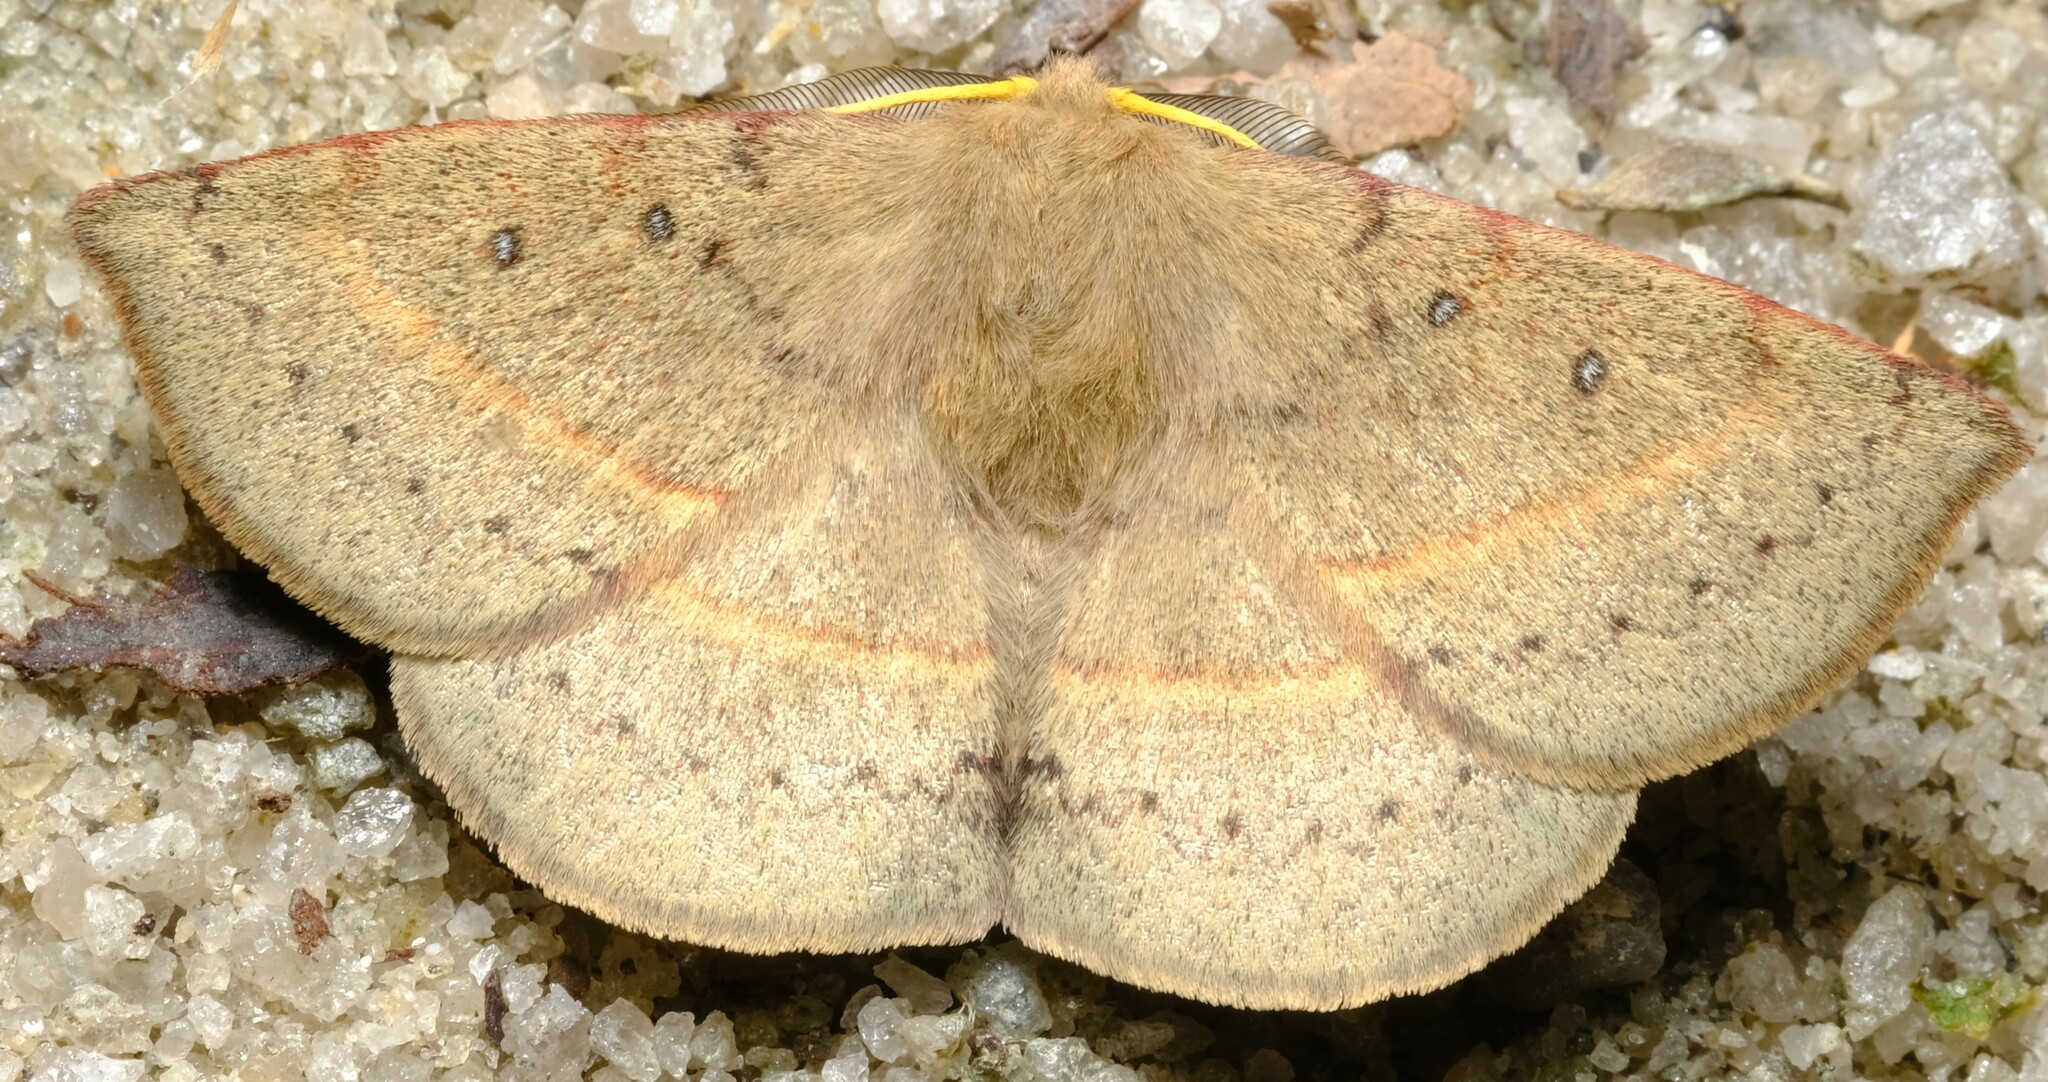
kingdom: Animalia
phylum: Arthropoda
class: Insecta
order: Lepidoptera
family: Anthelidae
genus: Anthela
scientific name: Anthela acuta
